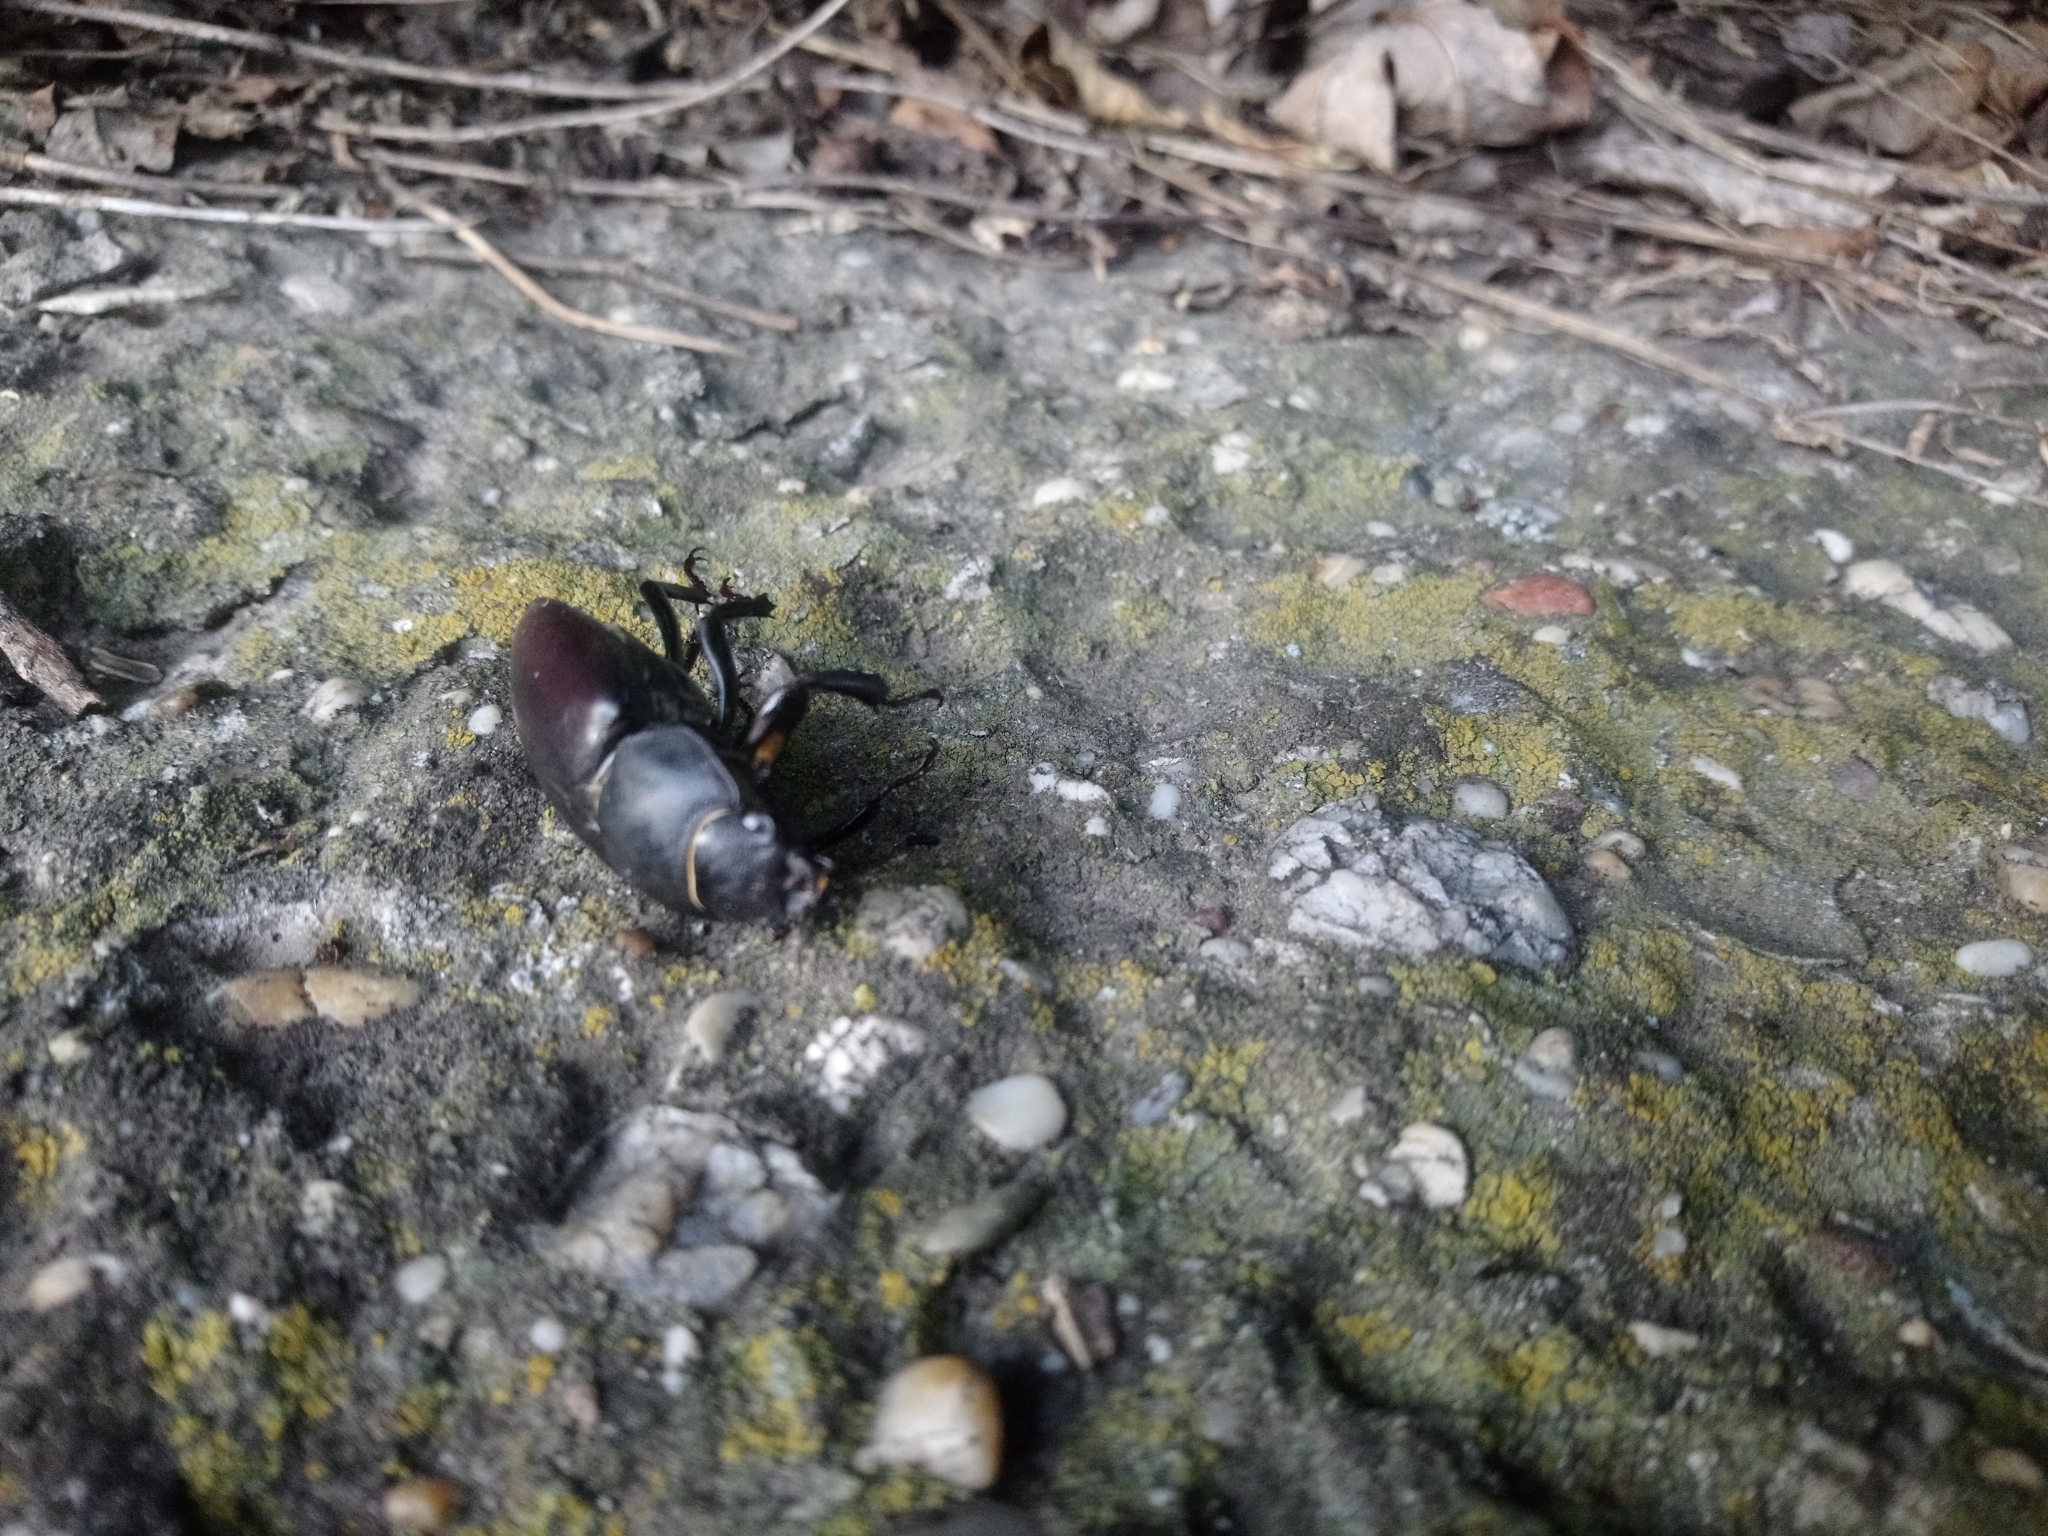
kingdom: Animalia
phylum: Arthropoda
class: Insecta
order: Coleoptera
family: Lucanidae
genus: Lucanus
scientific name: Lucanus cervus
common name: Stag beetle
